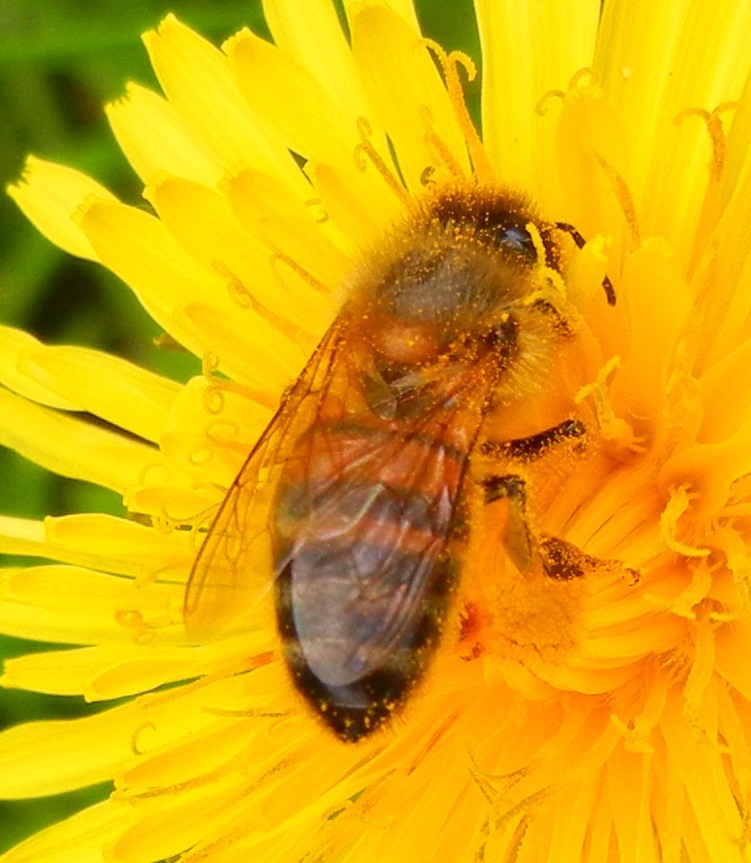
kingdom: Animalia
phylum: Arthropoda
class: Insecta
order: Hymenoptera
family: Apidae
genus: Apis
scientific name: Apis mellifera
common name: Honey bee
